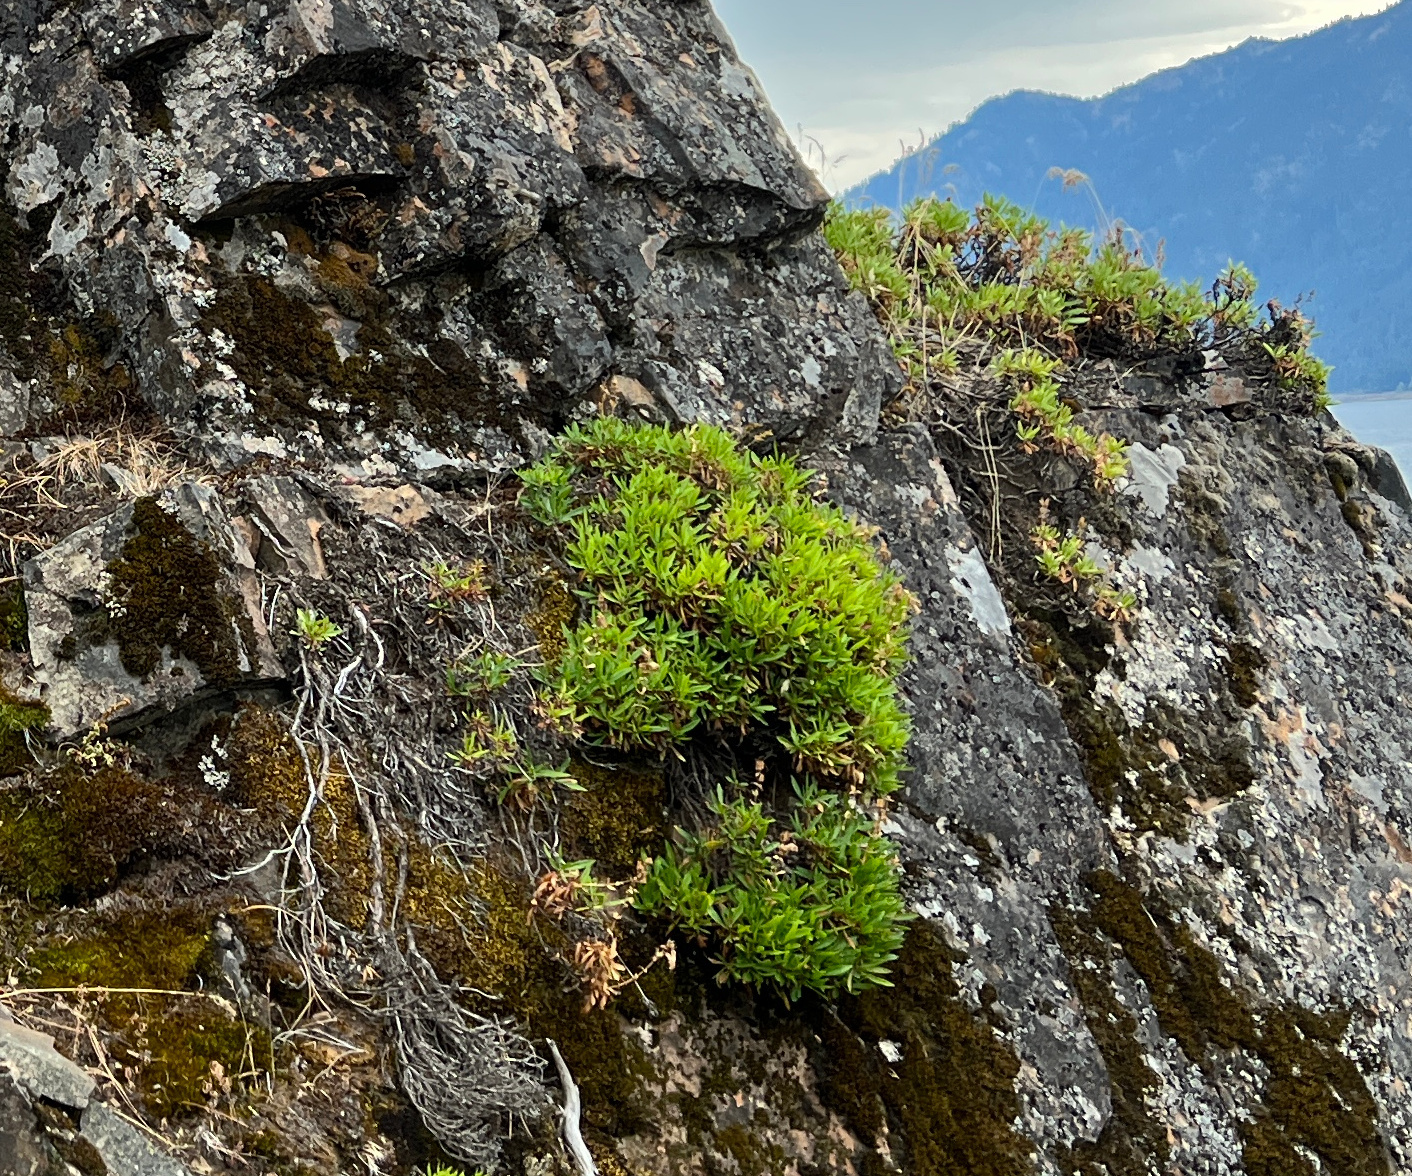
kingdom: Plantae
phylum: Tracheophyta
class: Magnoliopsida
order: Lamiales
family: Plantaginaceae
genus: Penstemon
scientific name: Penstemon fruticosus
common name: Bush penstemon
